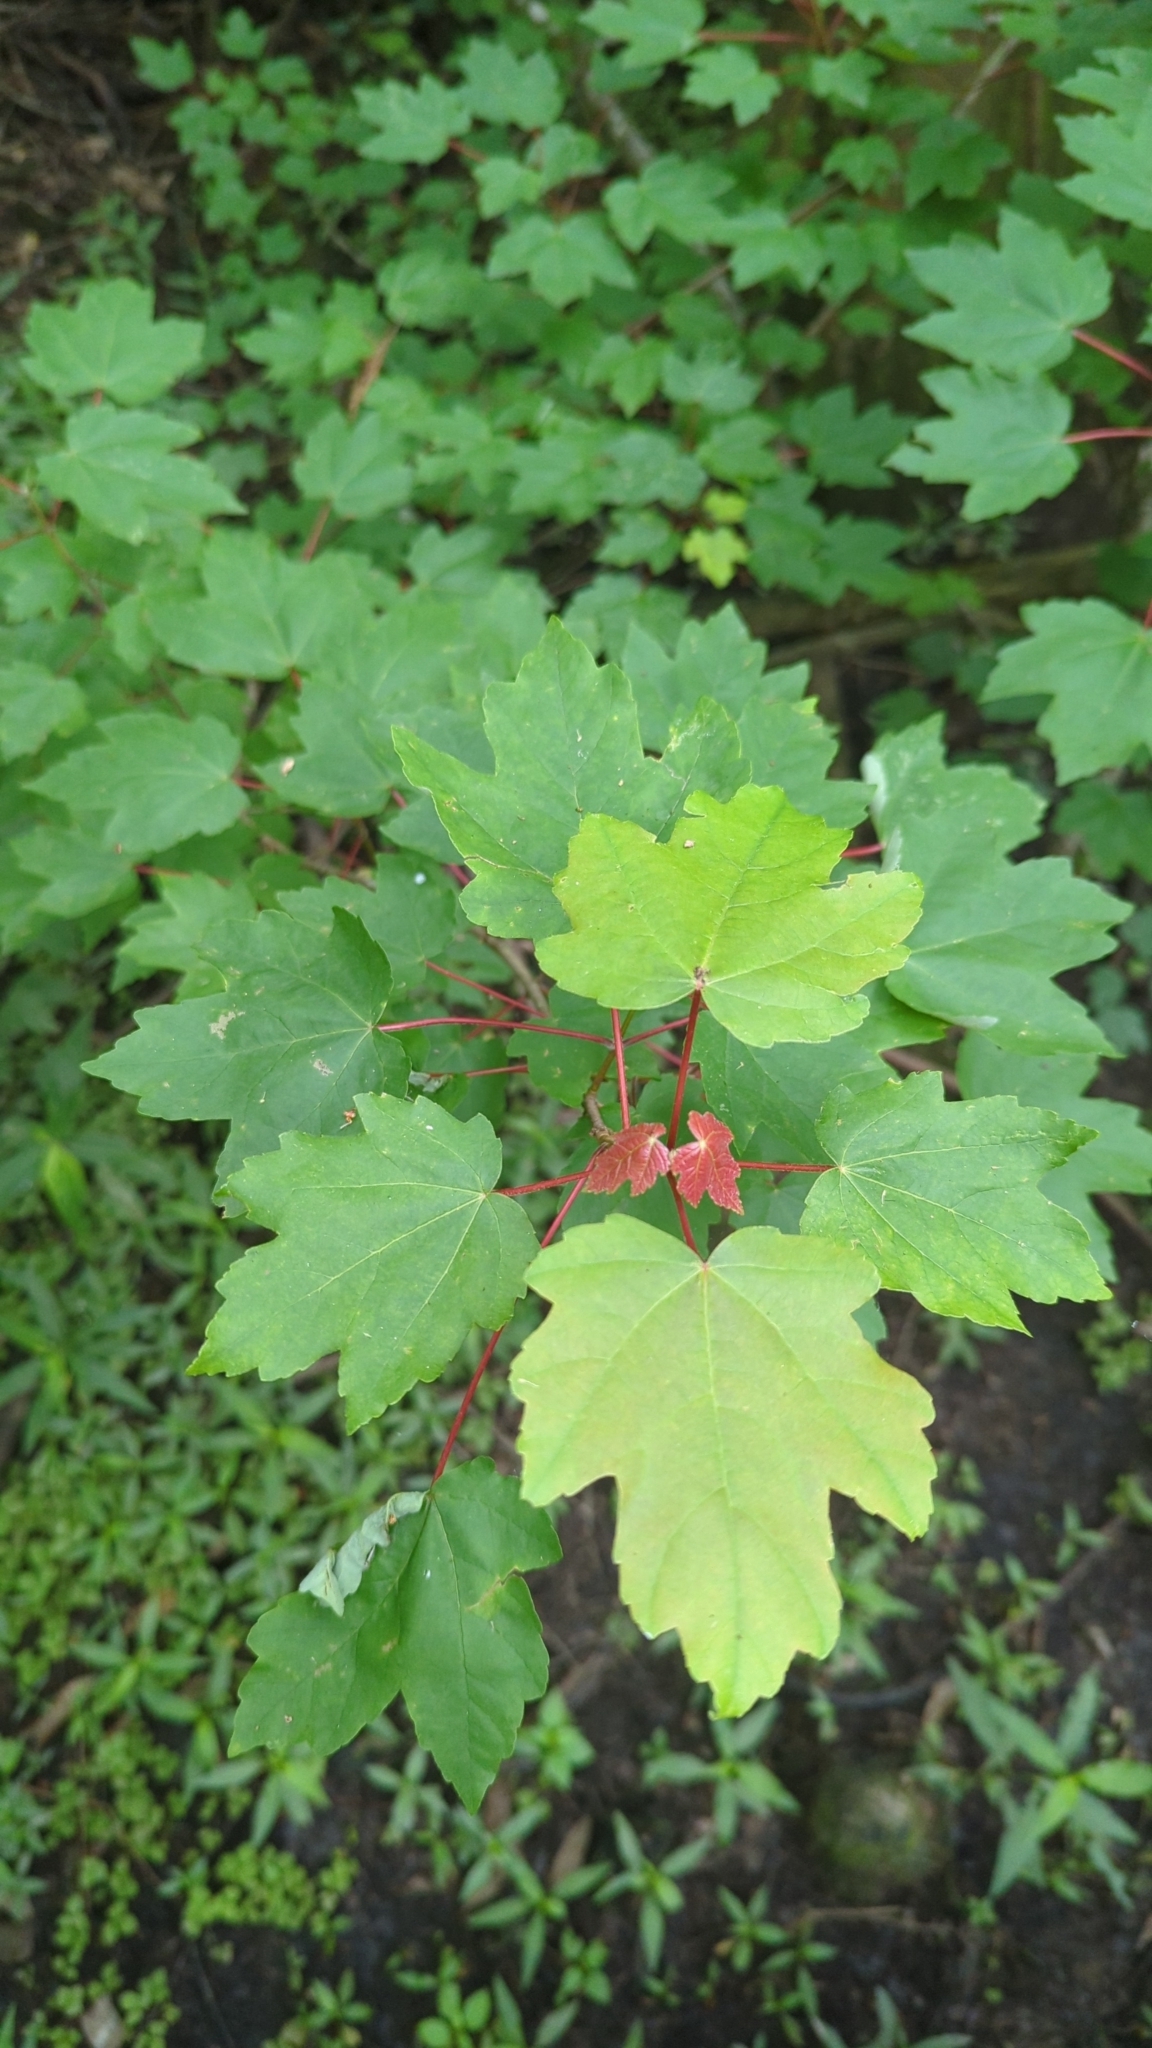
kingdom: Plantae
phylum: Tracheophyta
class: Magnoliopsida
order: Sapindales
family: Sapindaceae
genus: Acer
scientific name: Acer rubrum
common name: Red maple
